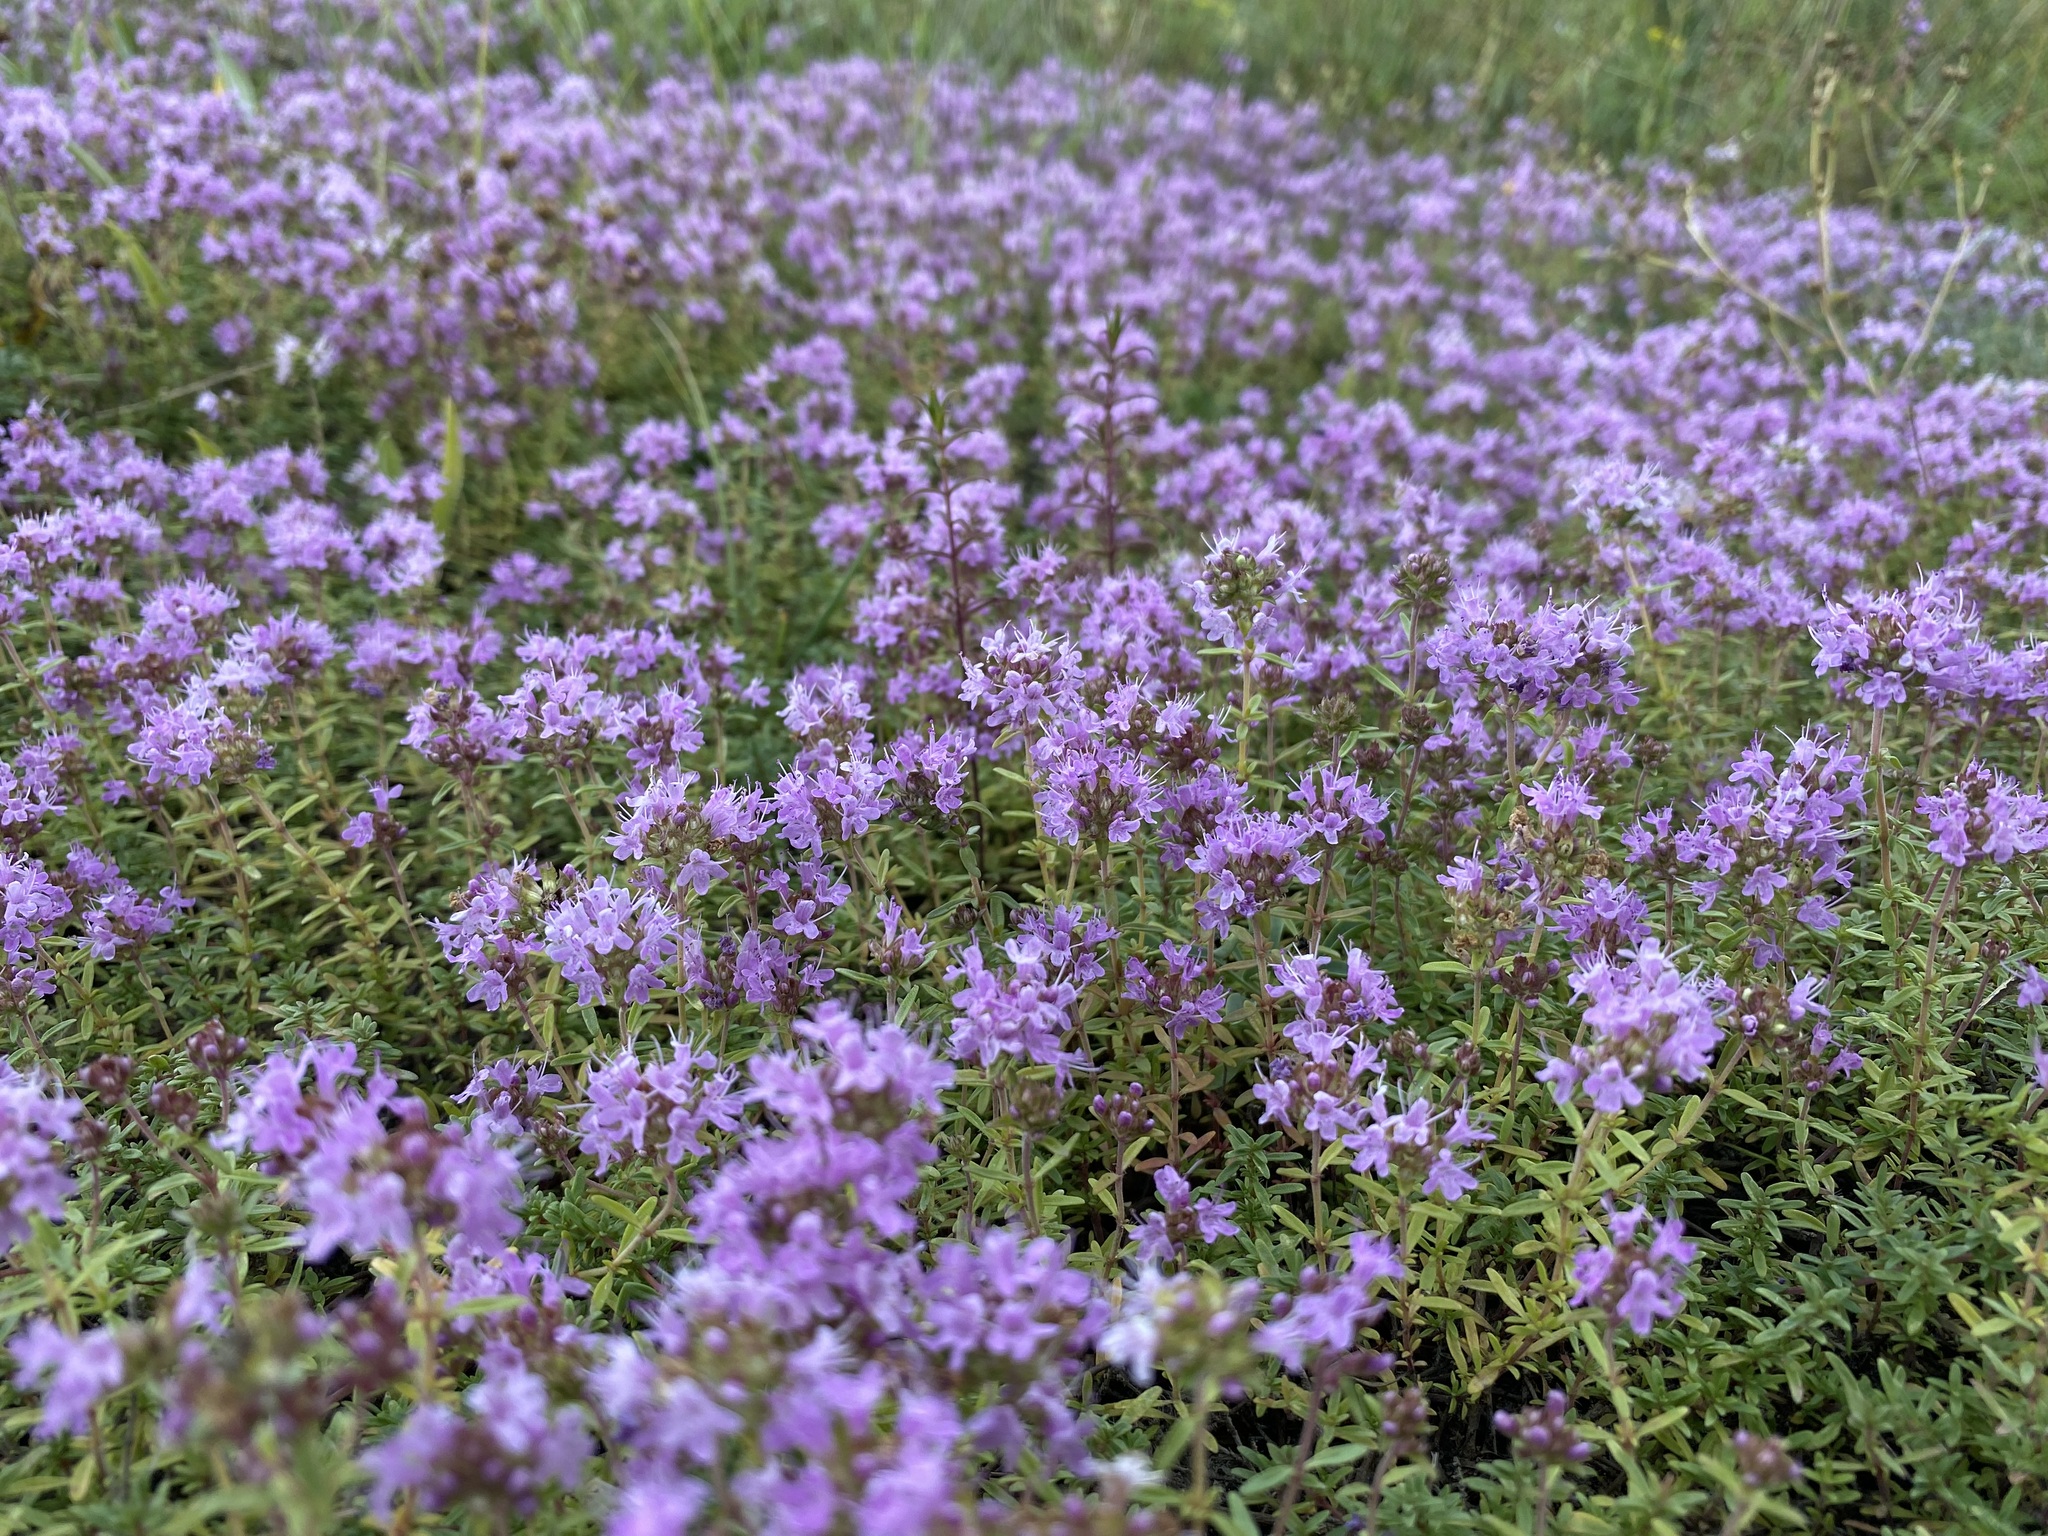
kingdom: Plantae
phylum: Tracheophyta
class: Magnoliopsida
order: Lamiales
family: Lamiaceae
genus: Thymus
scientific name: Thymus calcareus
